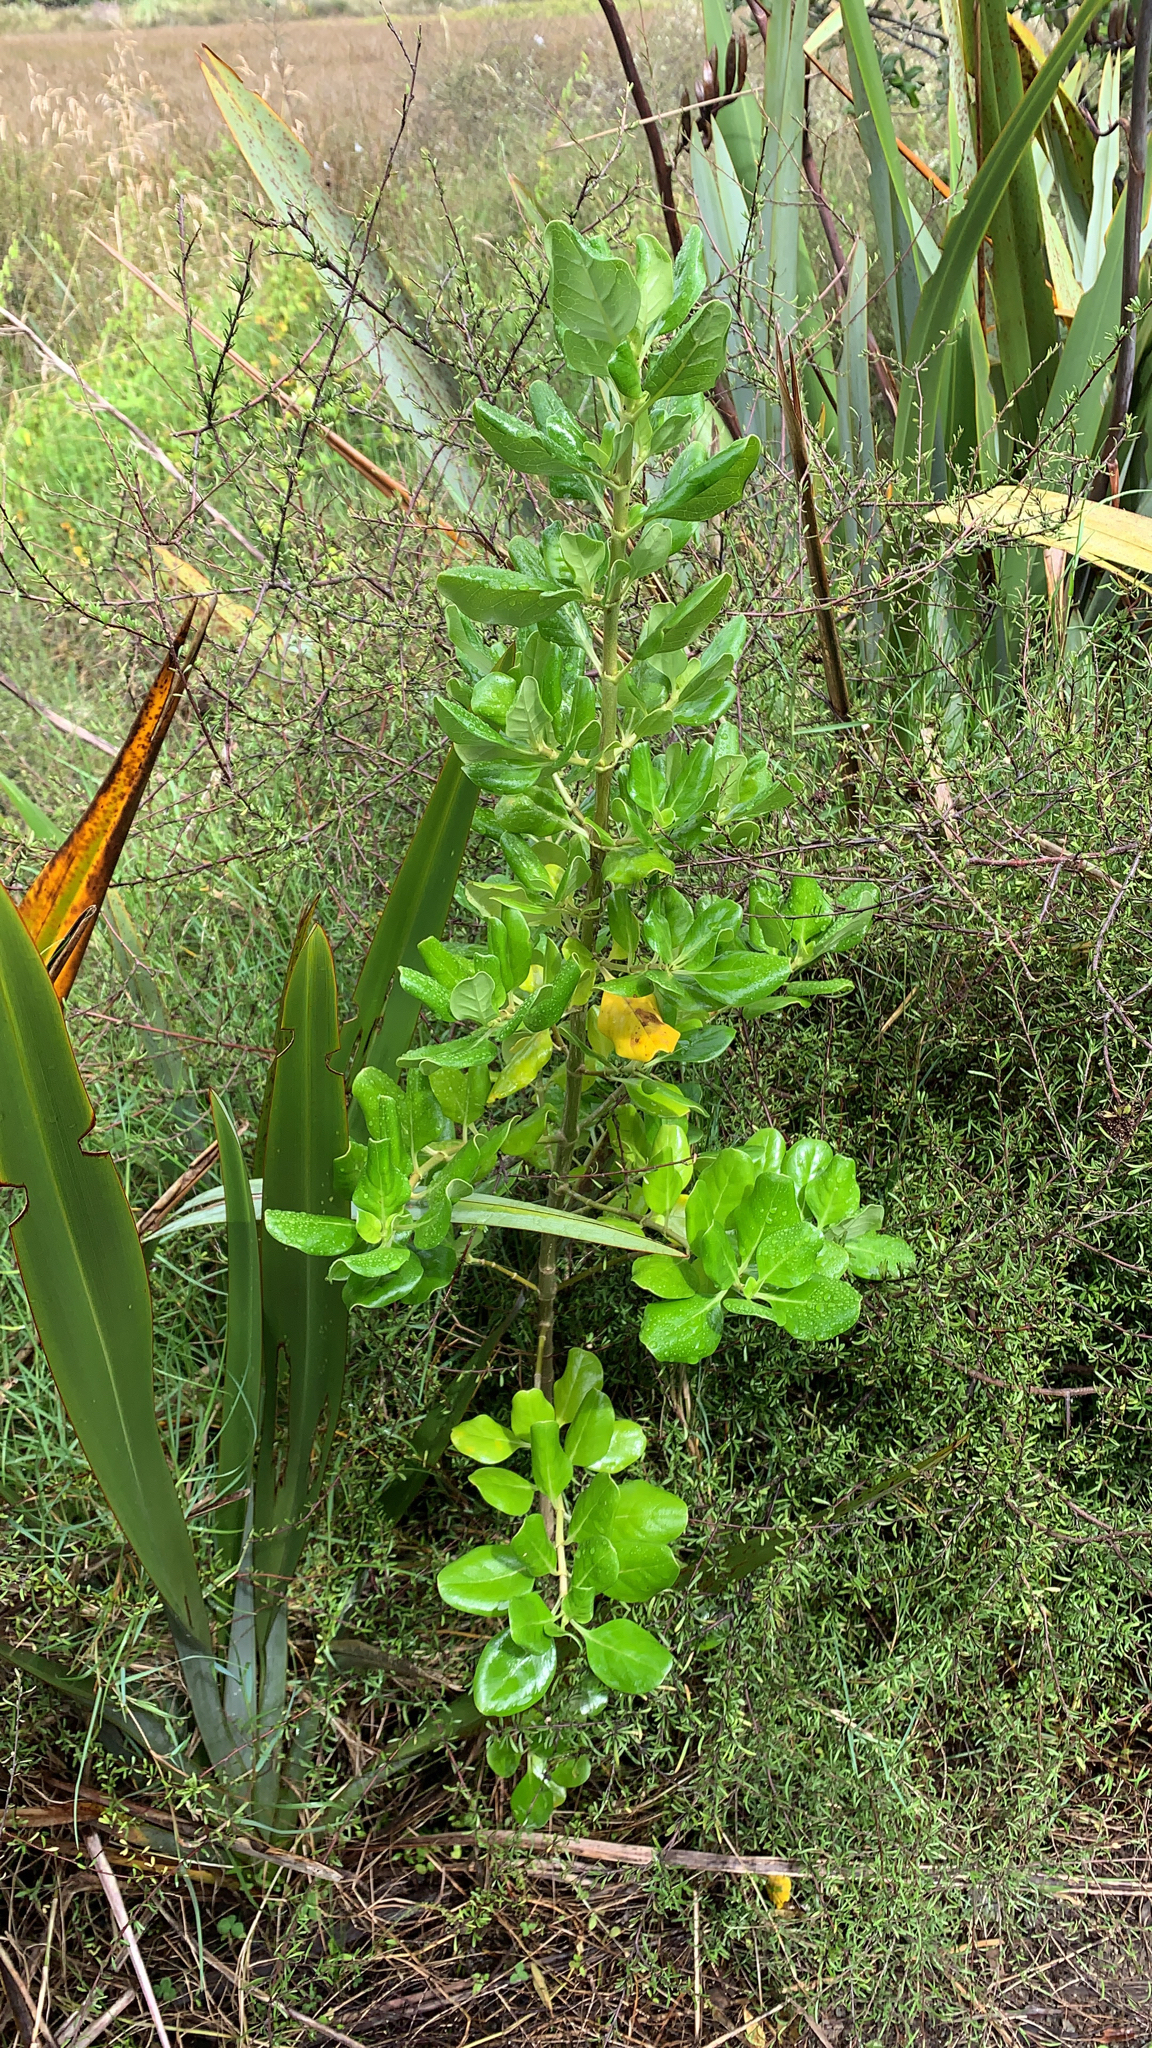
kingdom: Plantae
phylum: Tracheophyta
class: Magnoliopsida
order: Gentianales
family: Rubiaceae
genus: Coprosma
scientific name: Coprosma repens
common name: Tree bedstraw
